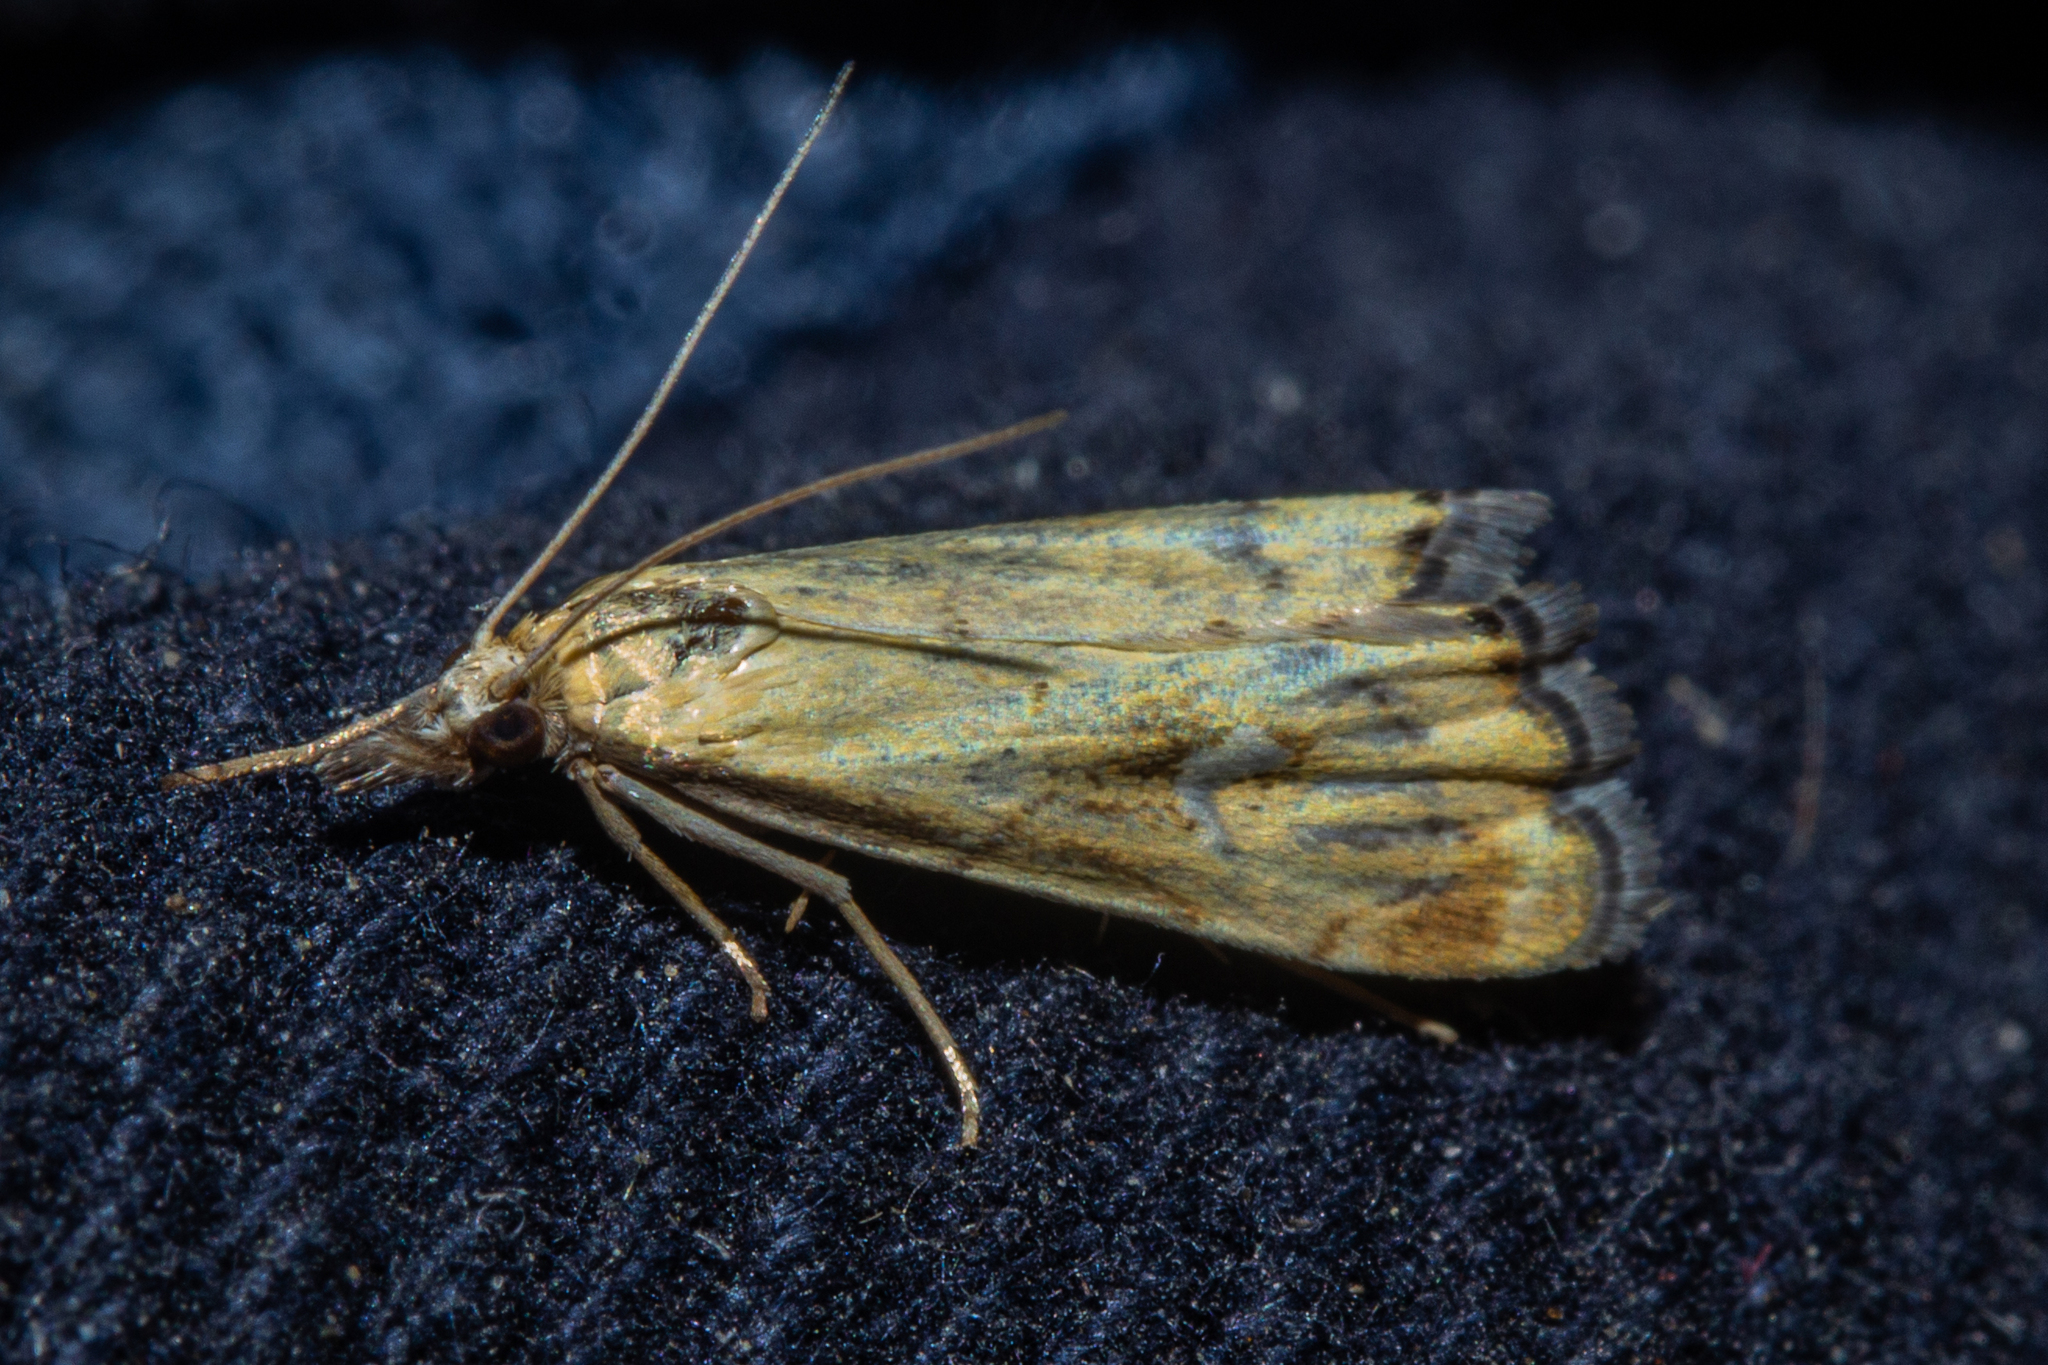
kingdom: Animalia
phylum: Arthropoda
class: Insecta
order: Lepidoptera
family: Crambidae
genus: Glaucocharis
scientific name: Glaucocharis lepidella
